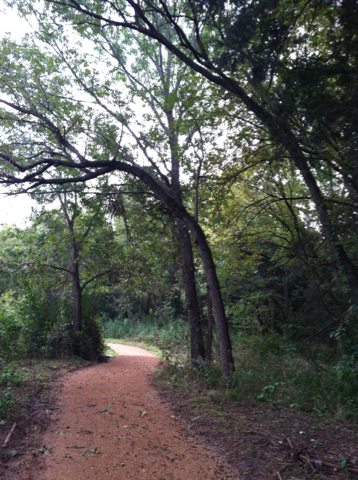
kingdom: Plantae
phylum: Tracheophyta
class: Magnoliopsida
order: Fagales
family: Juglandaceae
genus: Juglans
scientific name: Juglans nigra
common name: Black walnut
